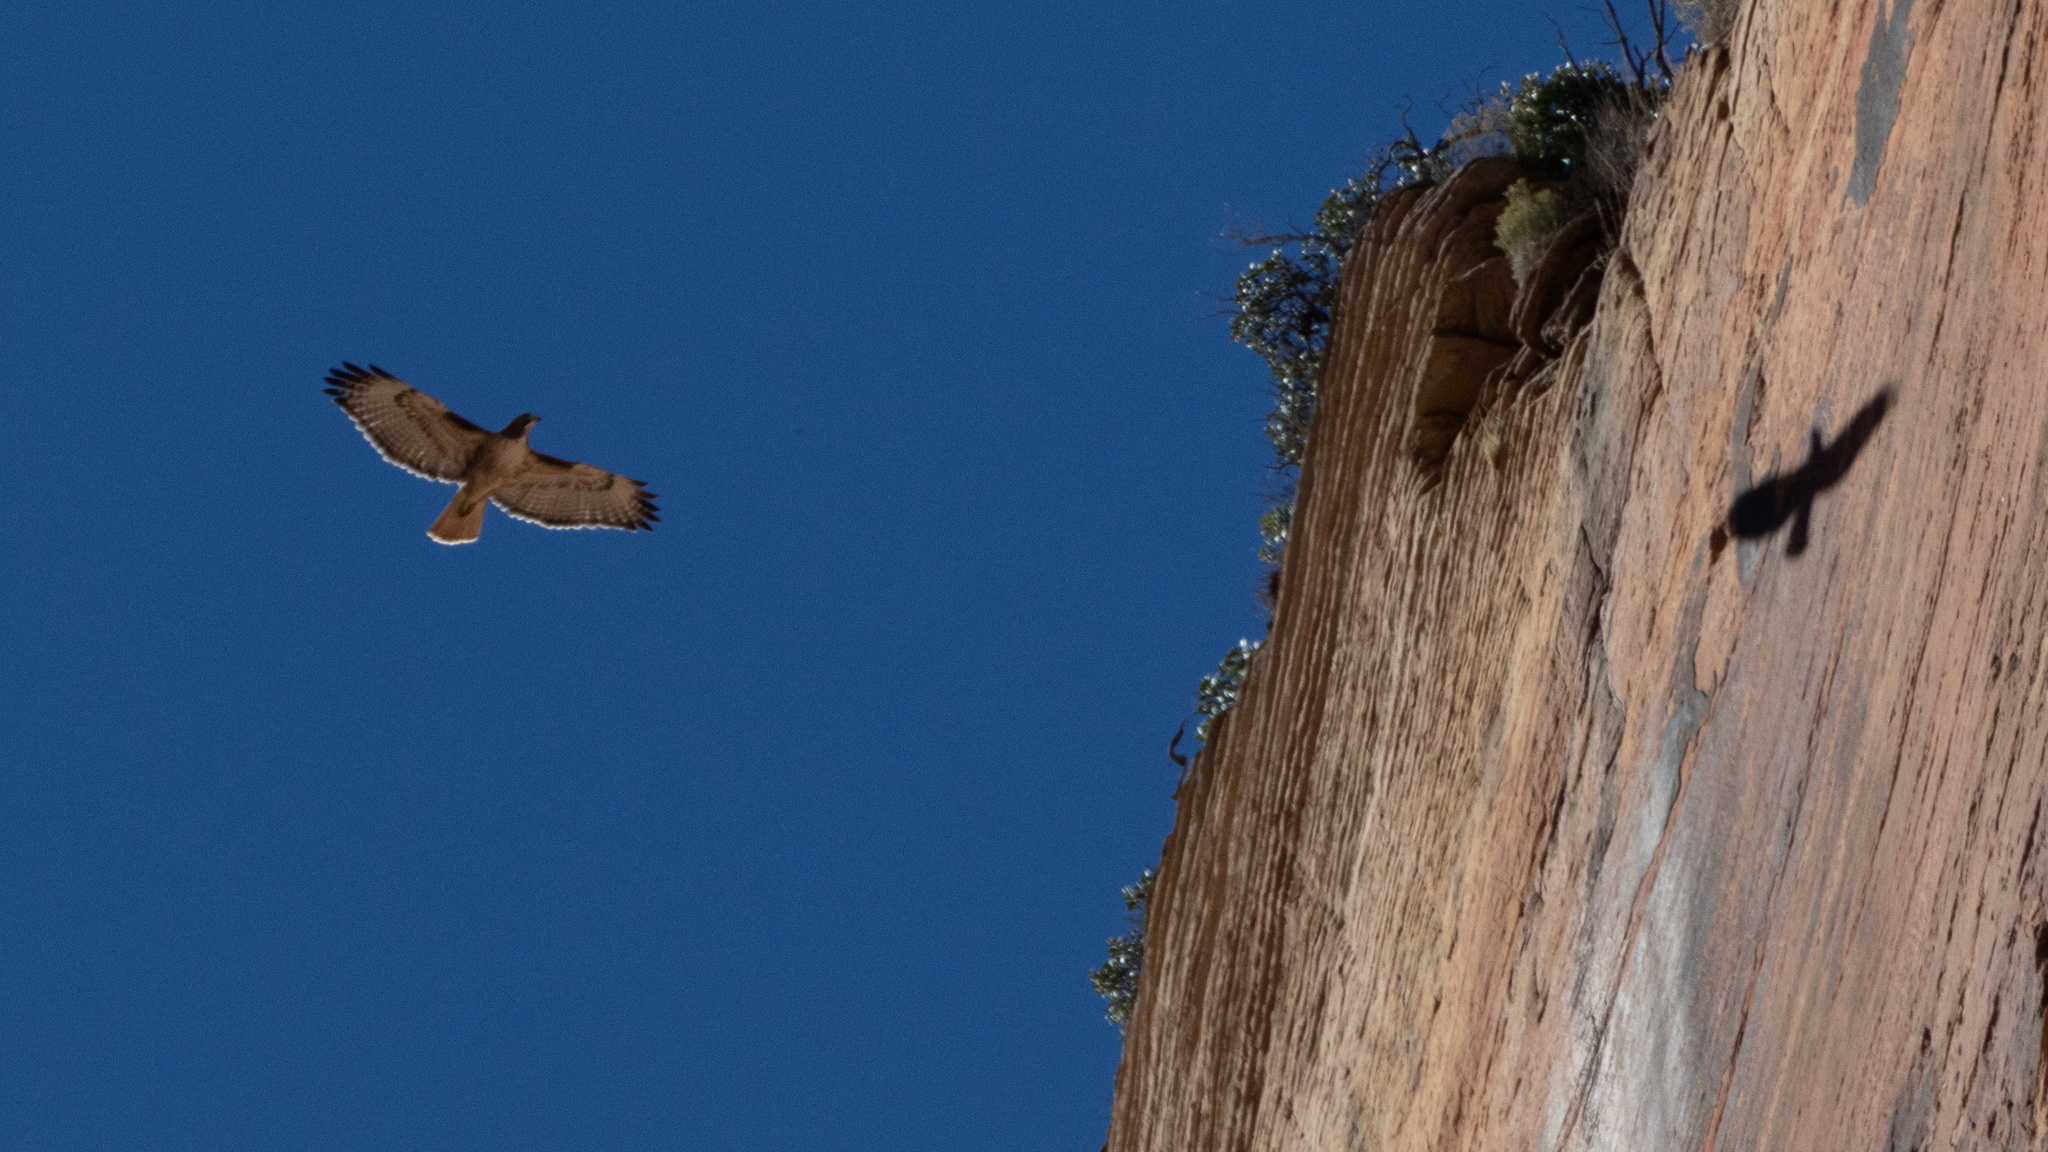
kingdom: Animalia
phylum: Chordata
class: Aves
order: Accipitriformes
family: Accipitridae
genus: Buteo
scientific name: Buteo jamaicensis
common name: Red-tailed hawk
